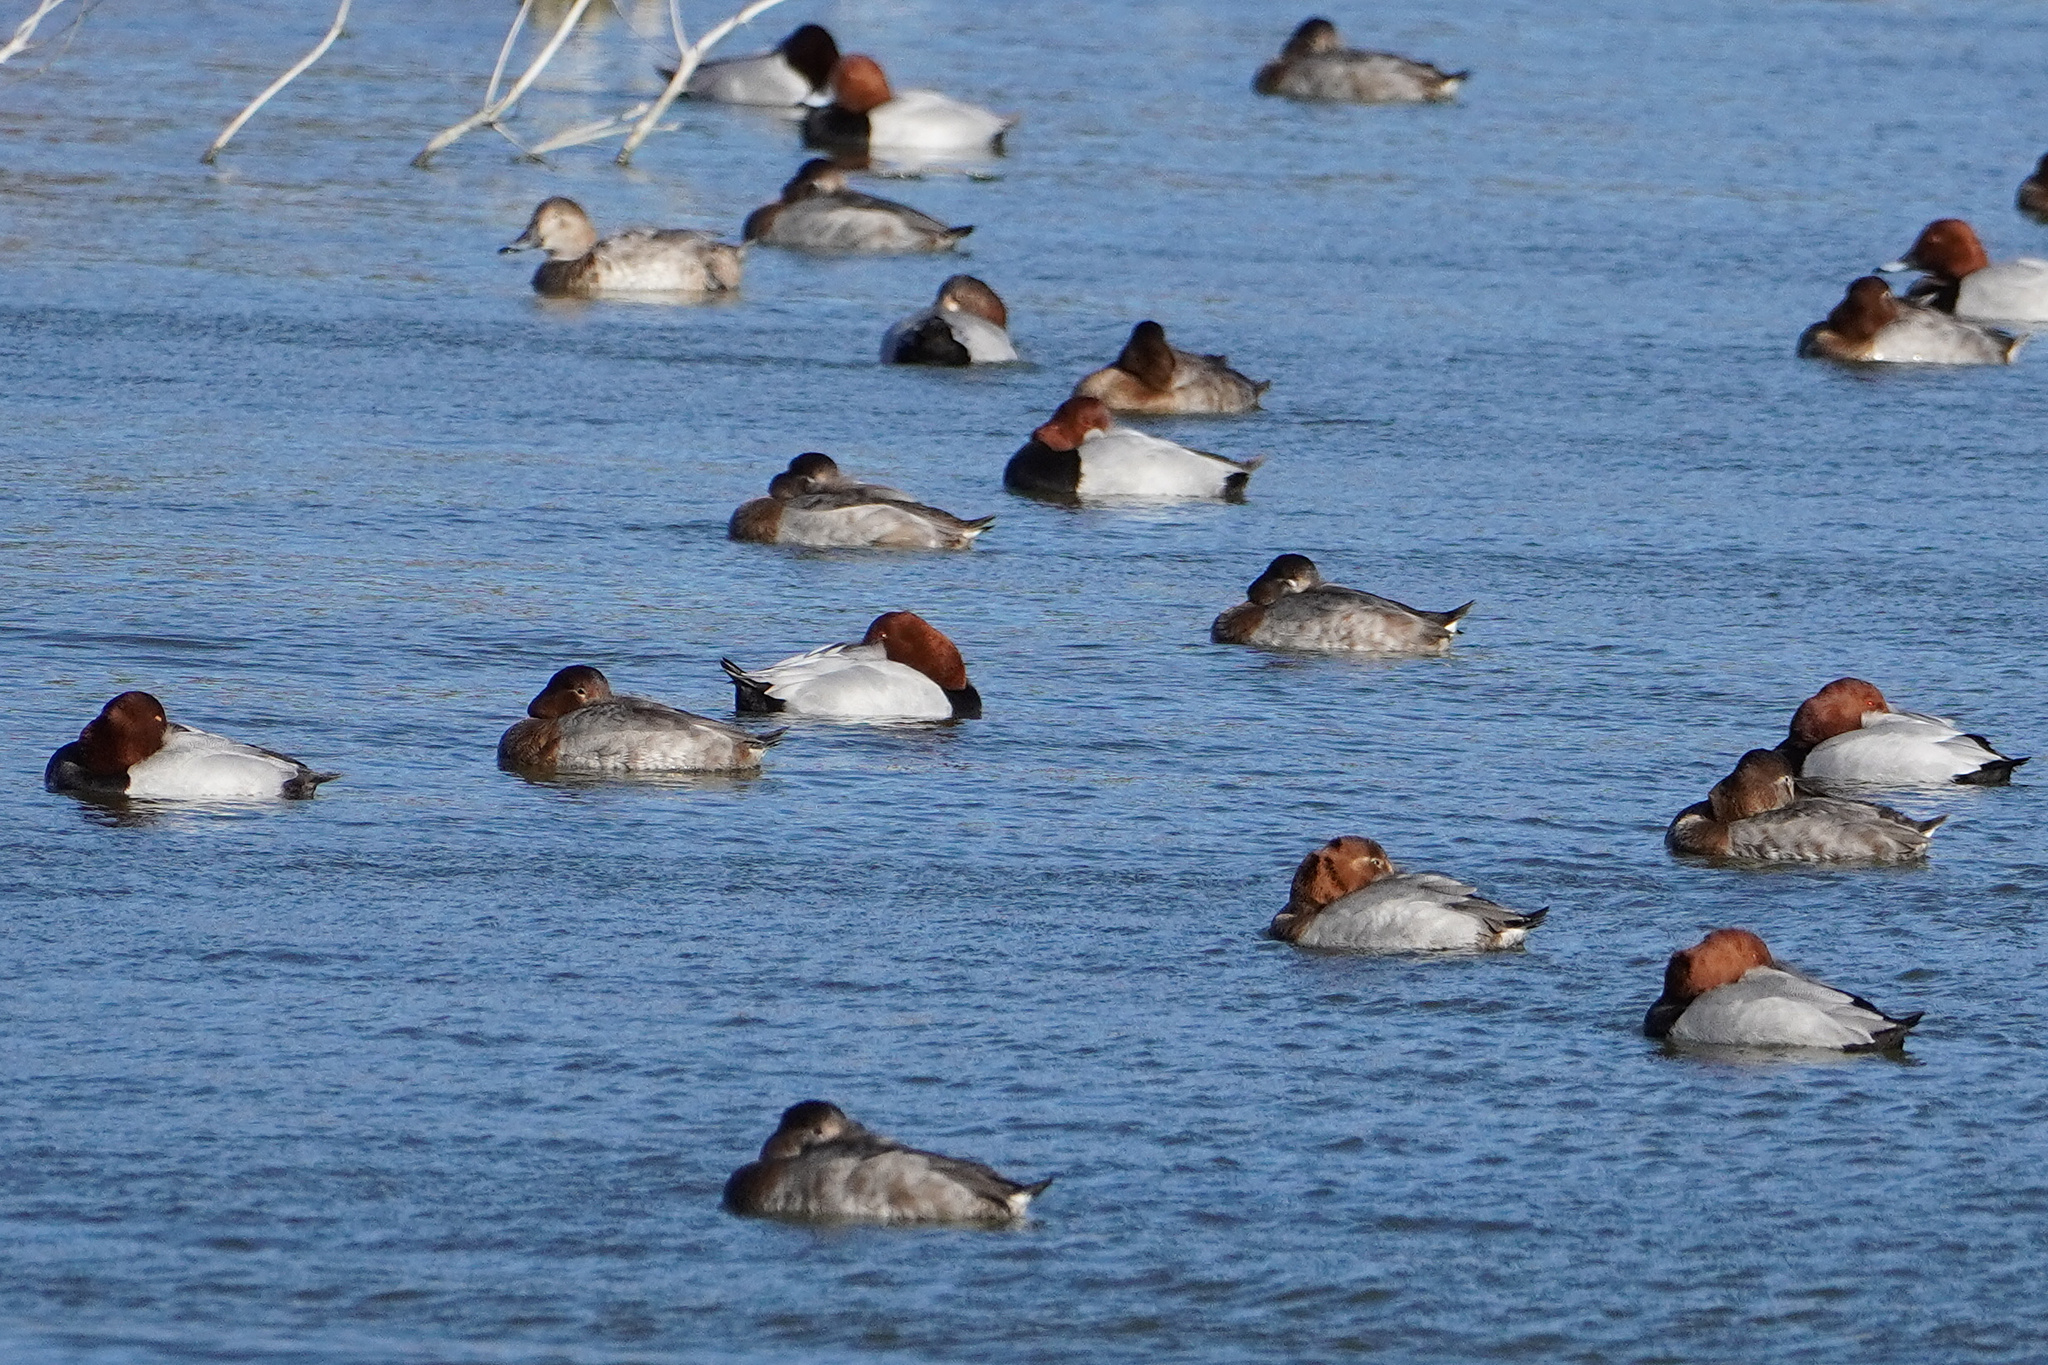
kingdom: Animalia
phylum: Chordata
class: Aves
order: Anseriformes
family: Anatidae
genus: Aythya
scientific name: Aythya ferina
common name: Common pochard
